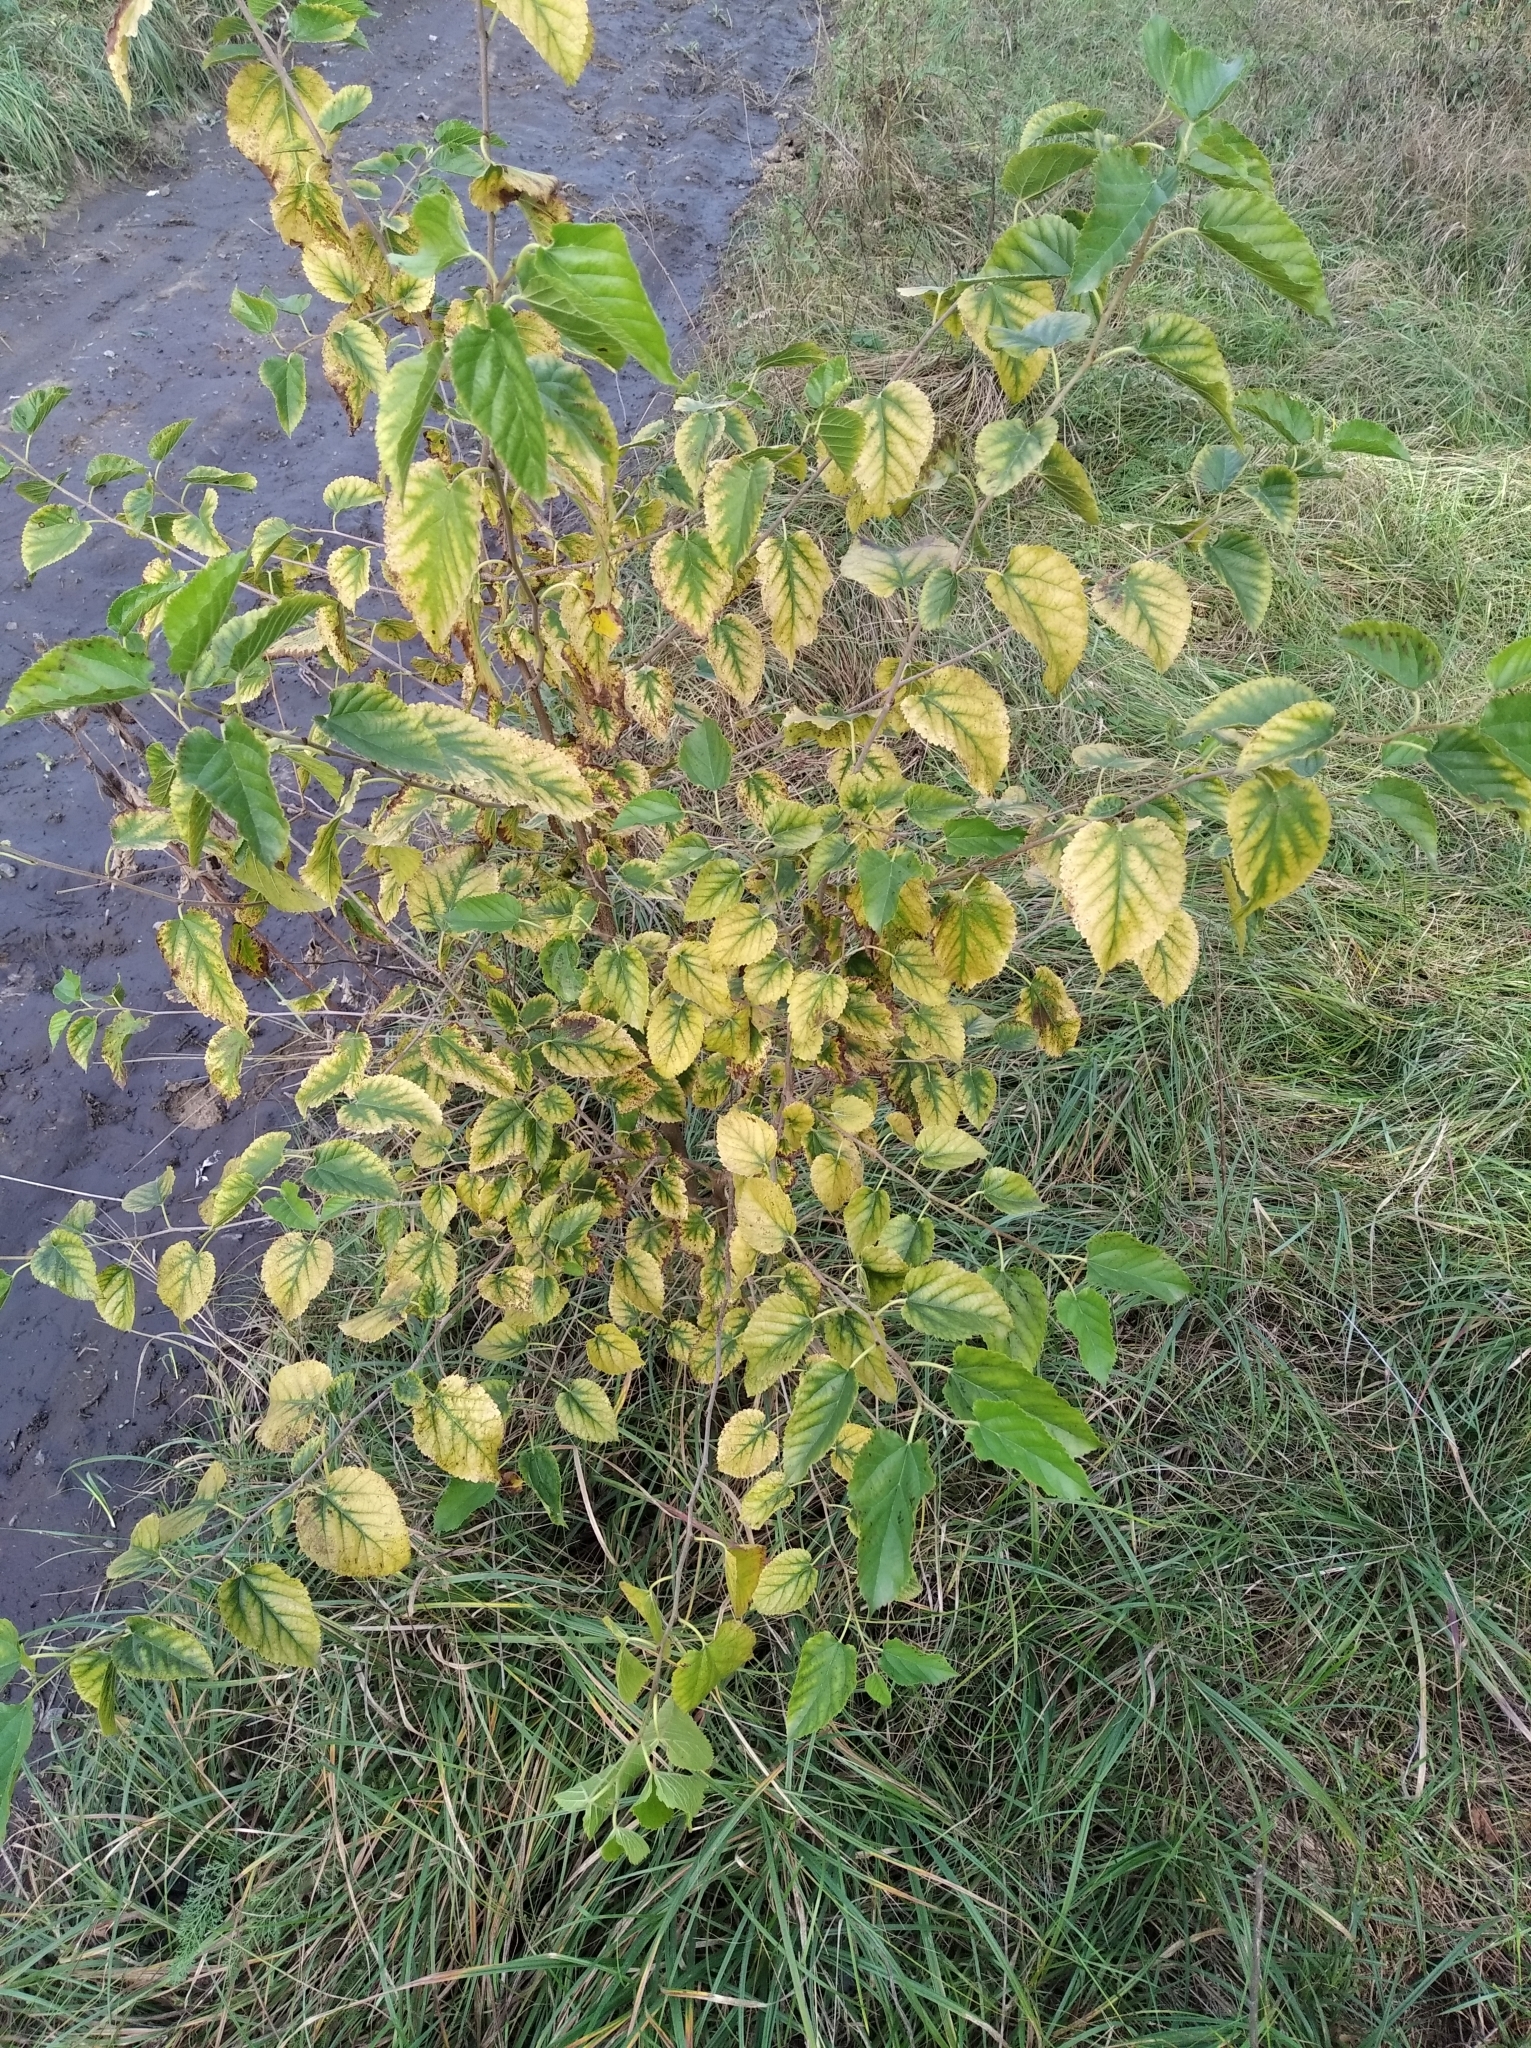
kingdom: Plantae
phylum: Tracheophyta
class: Magnoliopsida
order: Rosales
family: Moraceae
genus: Morus
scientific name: Morus alba
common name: White mulberry
